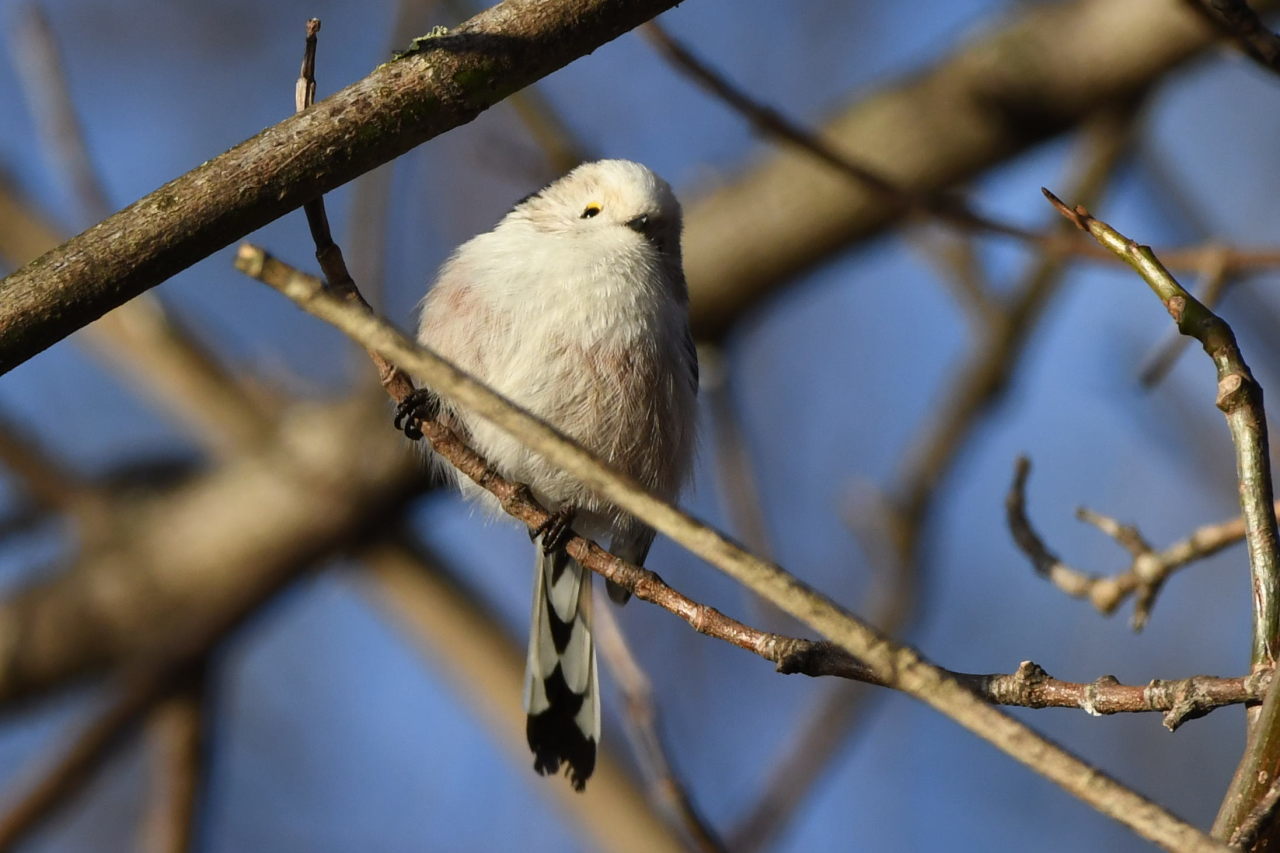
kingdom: Animalia
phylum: Chordata
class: Aves
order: Passeriformes
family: Aegithalidae
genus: Aegithalos
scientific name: Aegithalos caudatus
